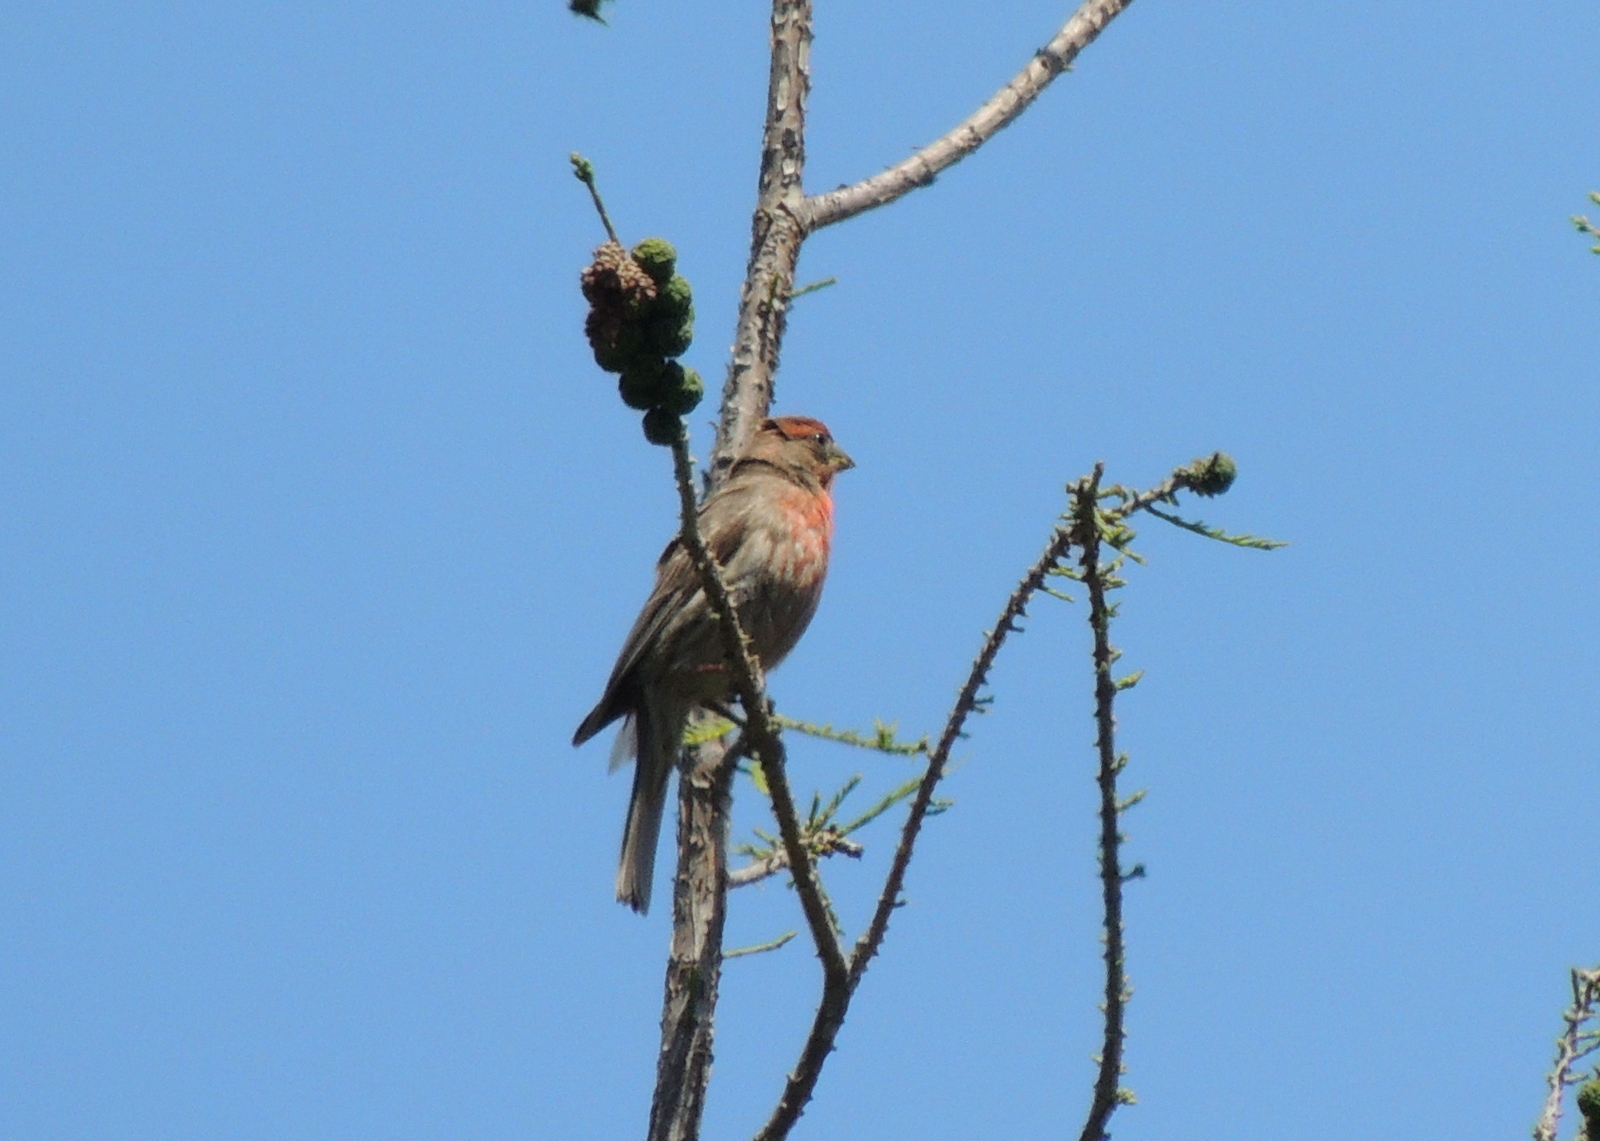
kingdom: Animalia
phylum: Chordata
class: Aves
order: Passeriformes
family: Fringillidae
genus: Haemorhous
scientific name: Haemorhous mexicanus
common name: House finch
